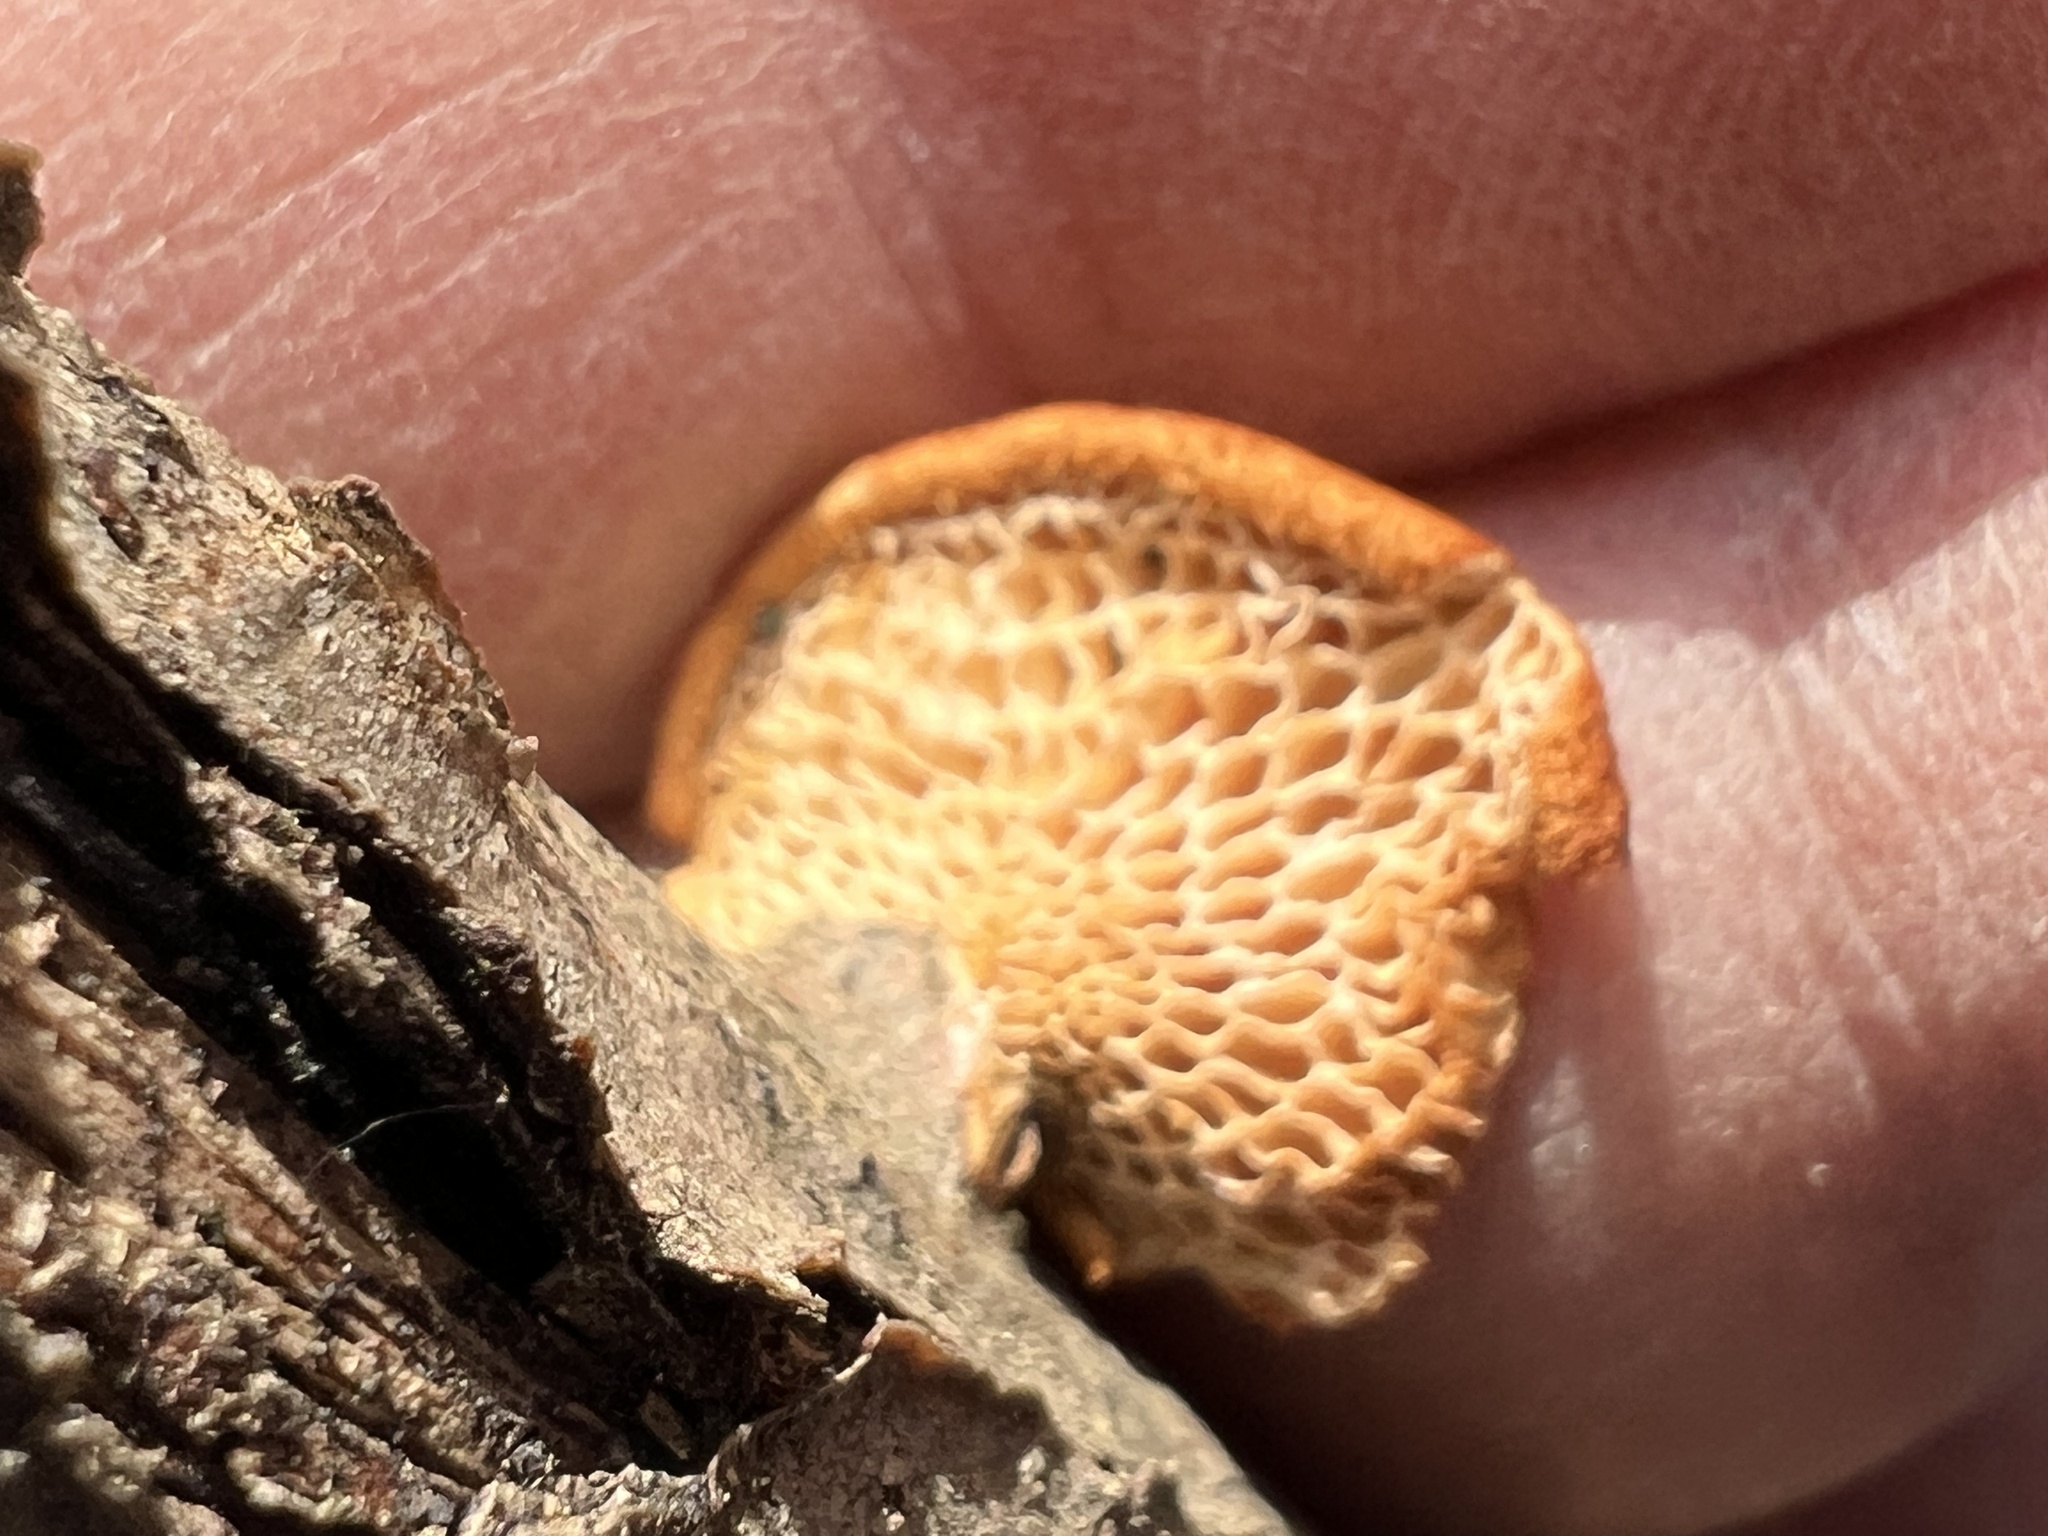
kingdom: Fungi
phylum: Basidiomycota
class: Agaricomycetes
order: Polyporales
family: Polyporaceae
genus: Neofavolus
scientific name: Neofavolus alveolaris
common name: Hexagonal-pored polypore
